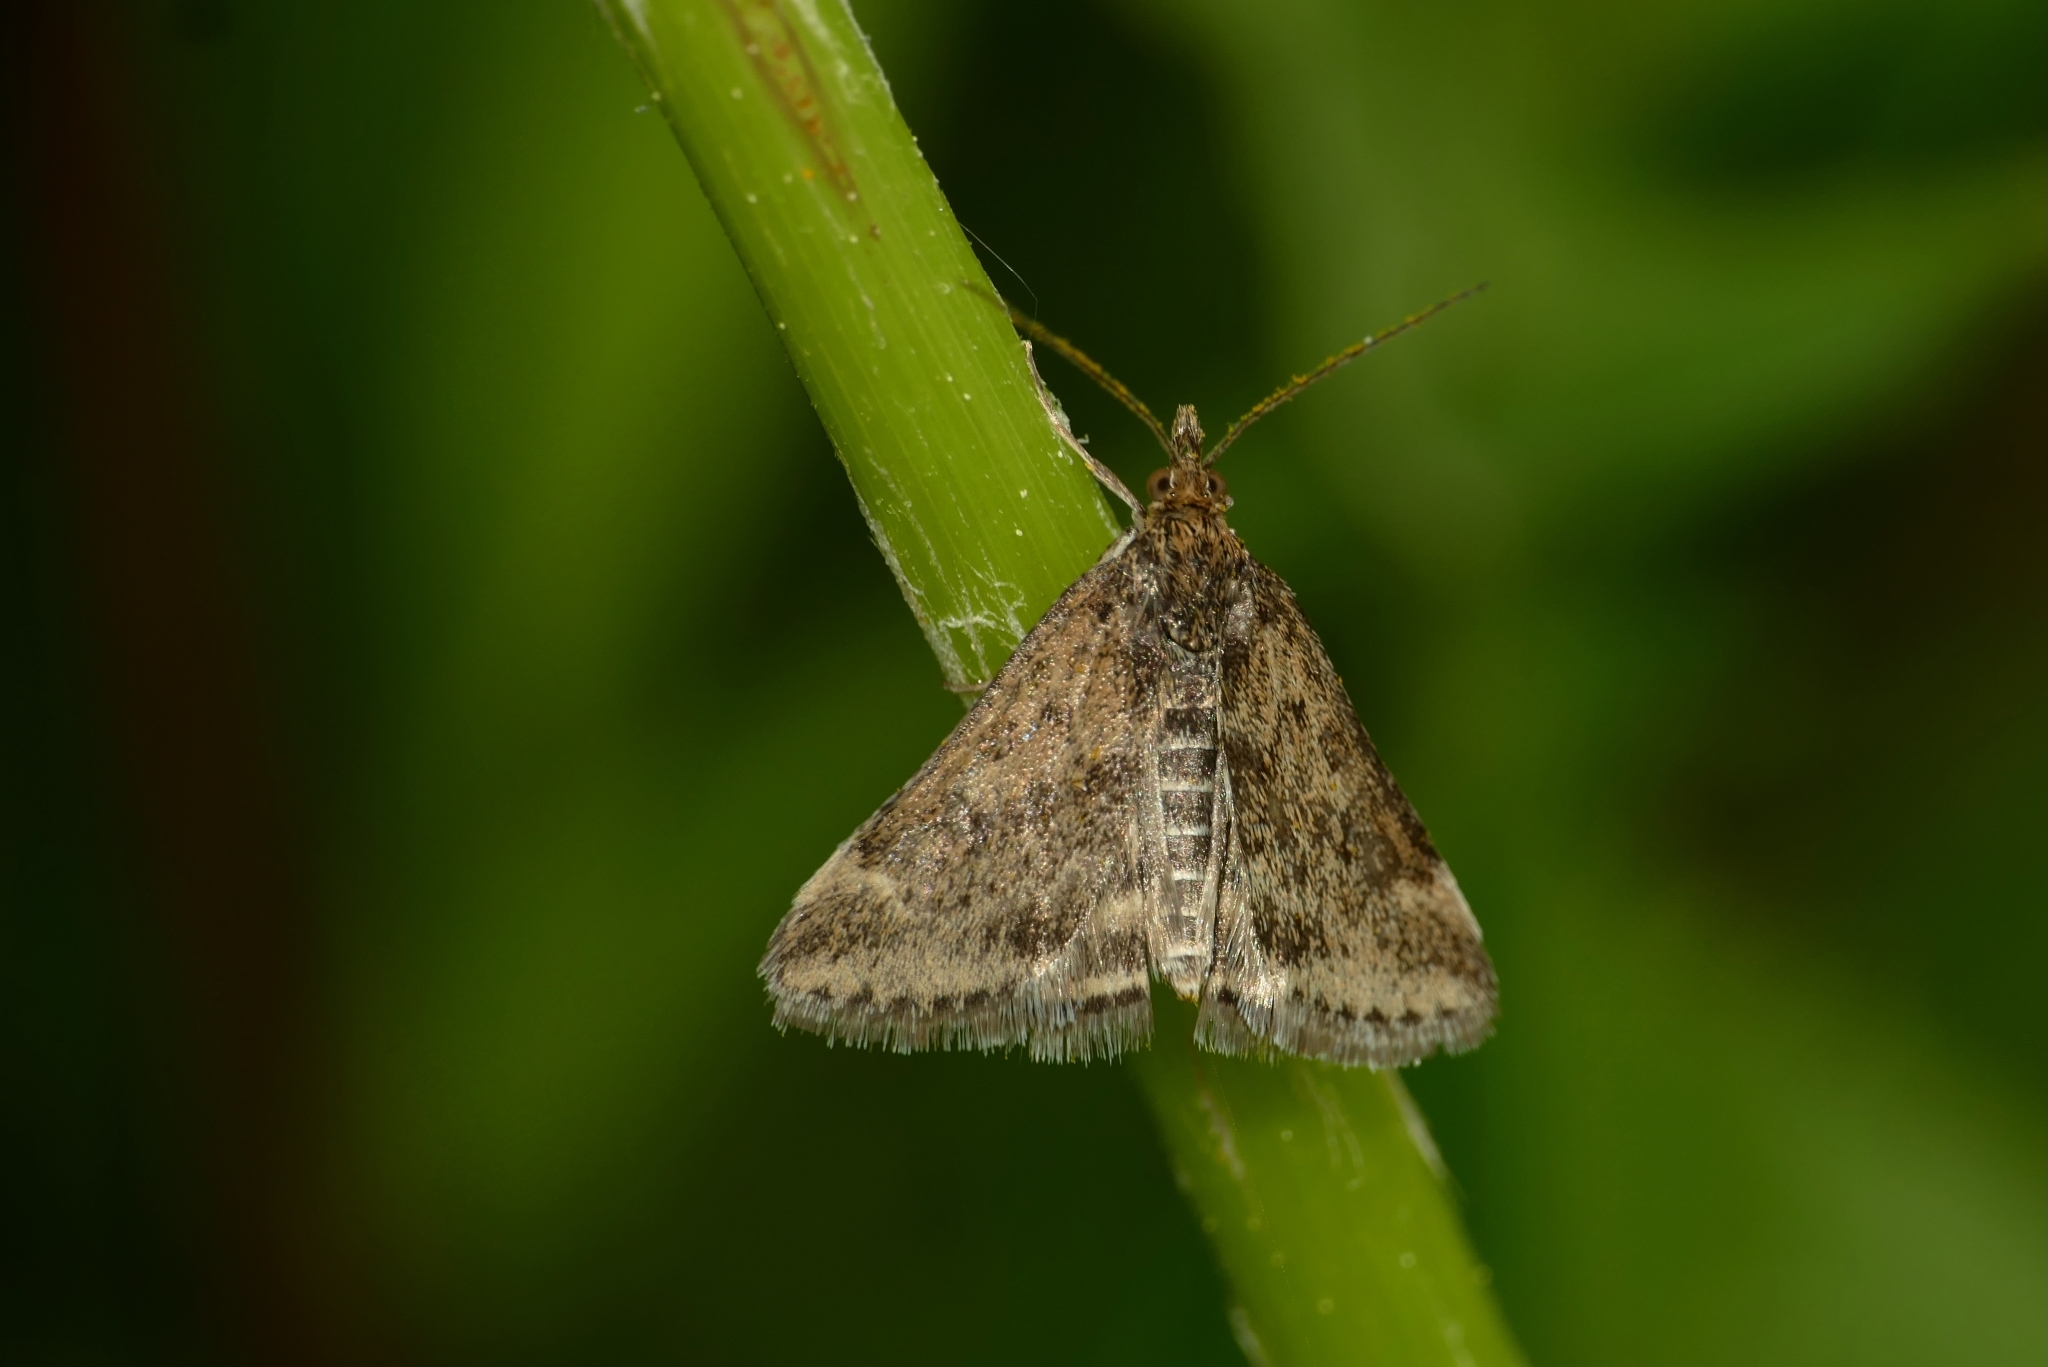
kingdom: Animalia
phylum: Arthropoda
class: Insecta
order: Lepidoptera
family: Crambidae
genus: Pyrausta
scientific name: Pyrausta despicata
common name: Straw-barred pearl
